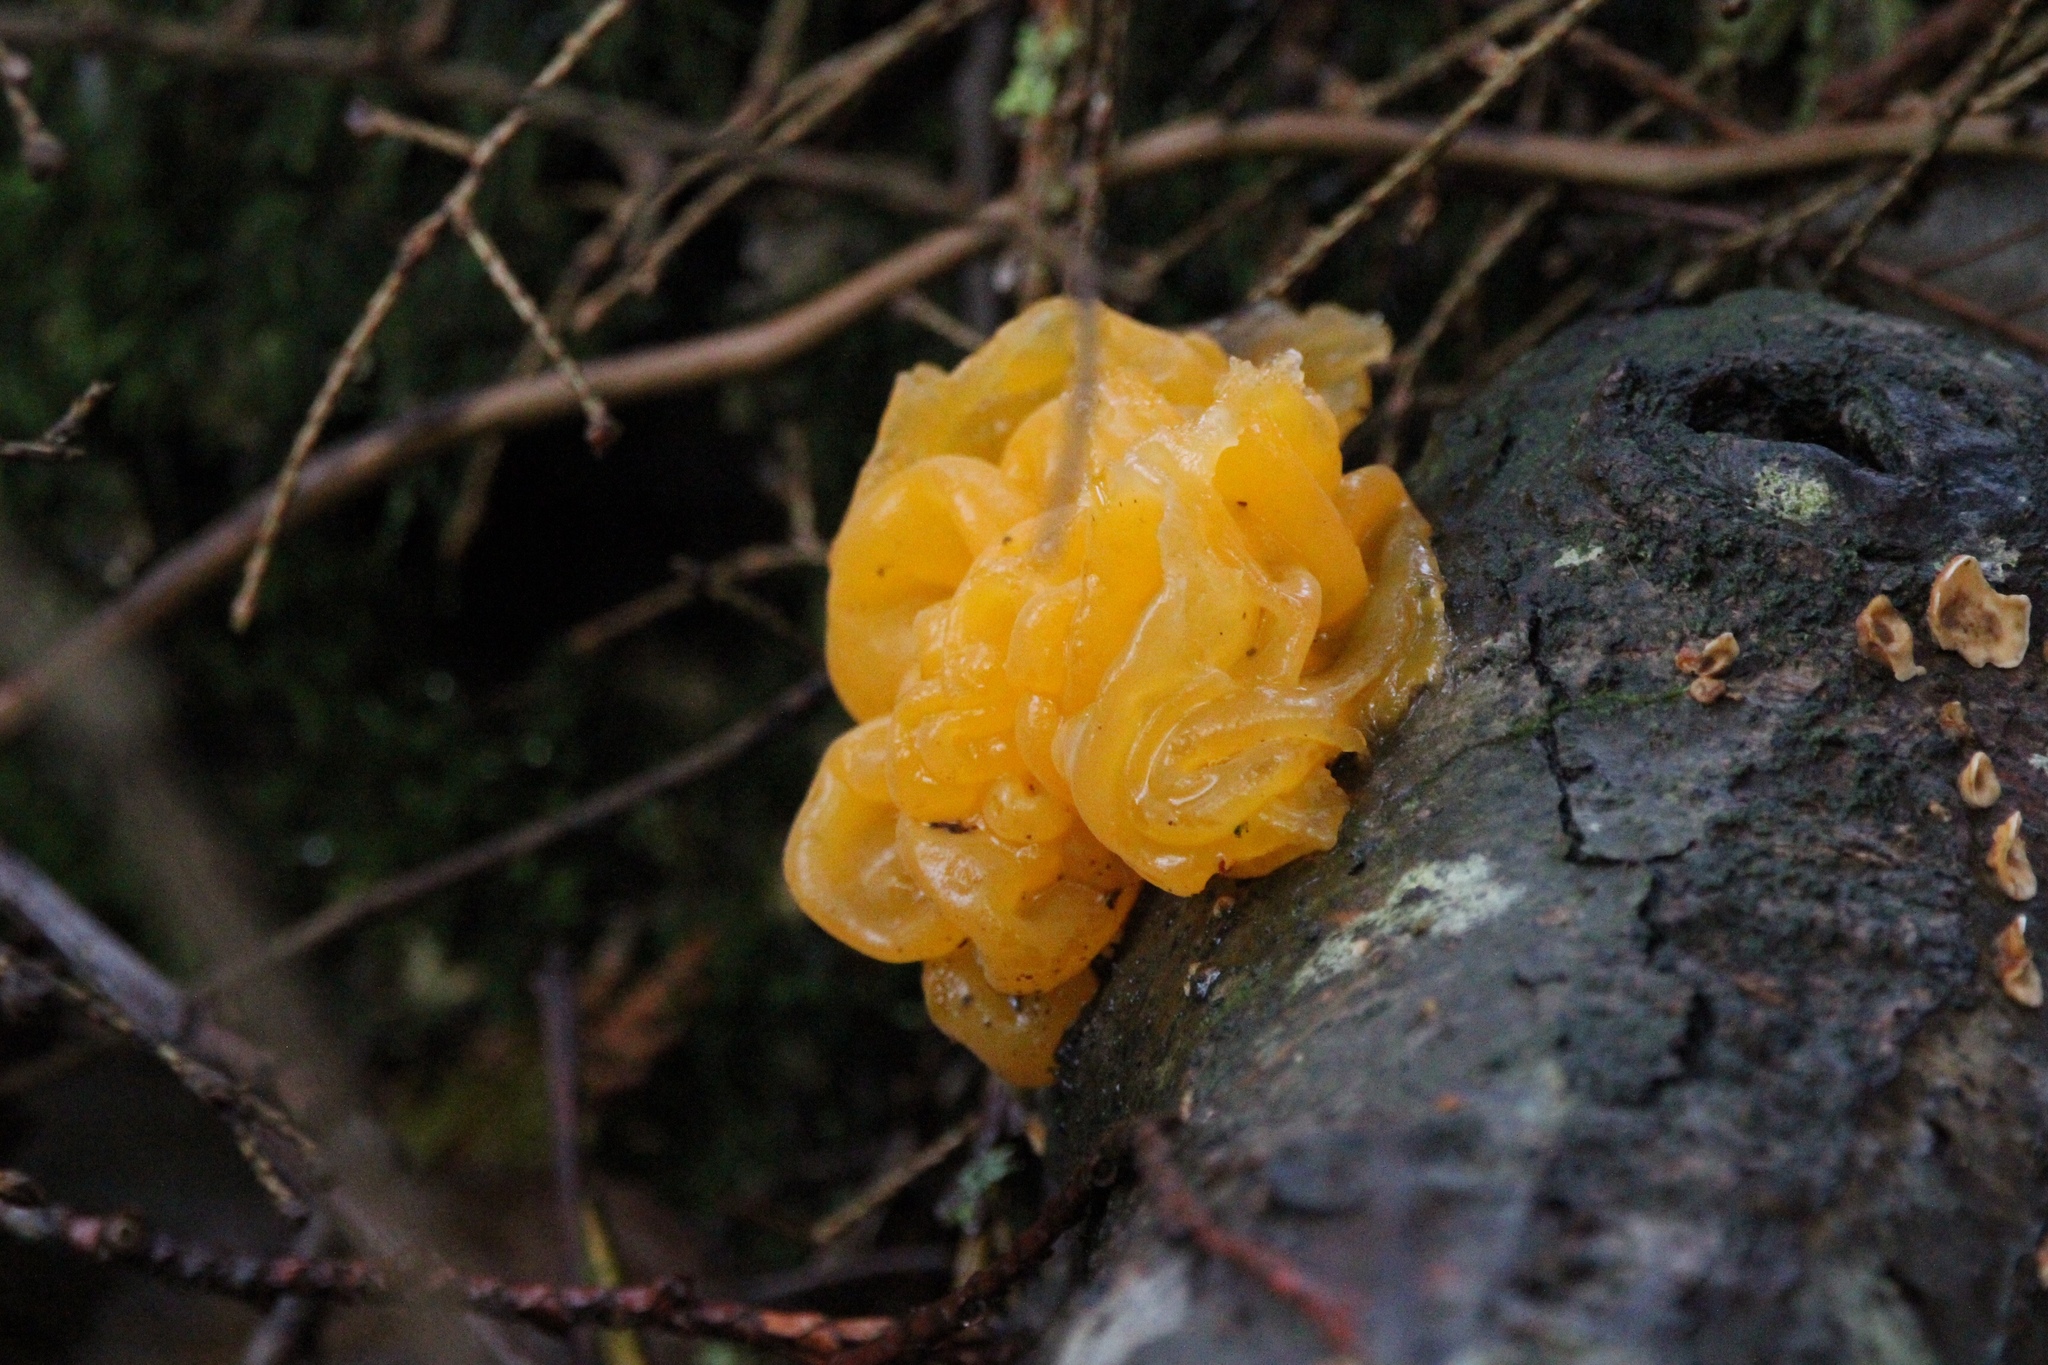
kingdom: Fungi
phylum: Basidiomycota
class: Tremellomycetes
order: Tremellales
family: Naemateliaceae
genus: Naematelia
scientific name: Naematelia aurantia
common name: Golden ear
